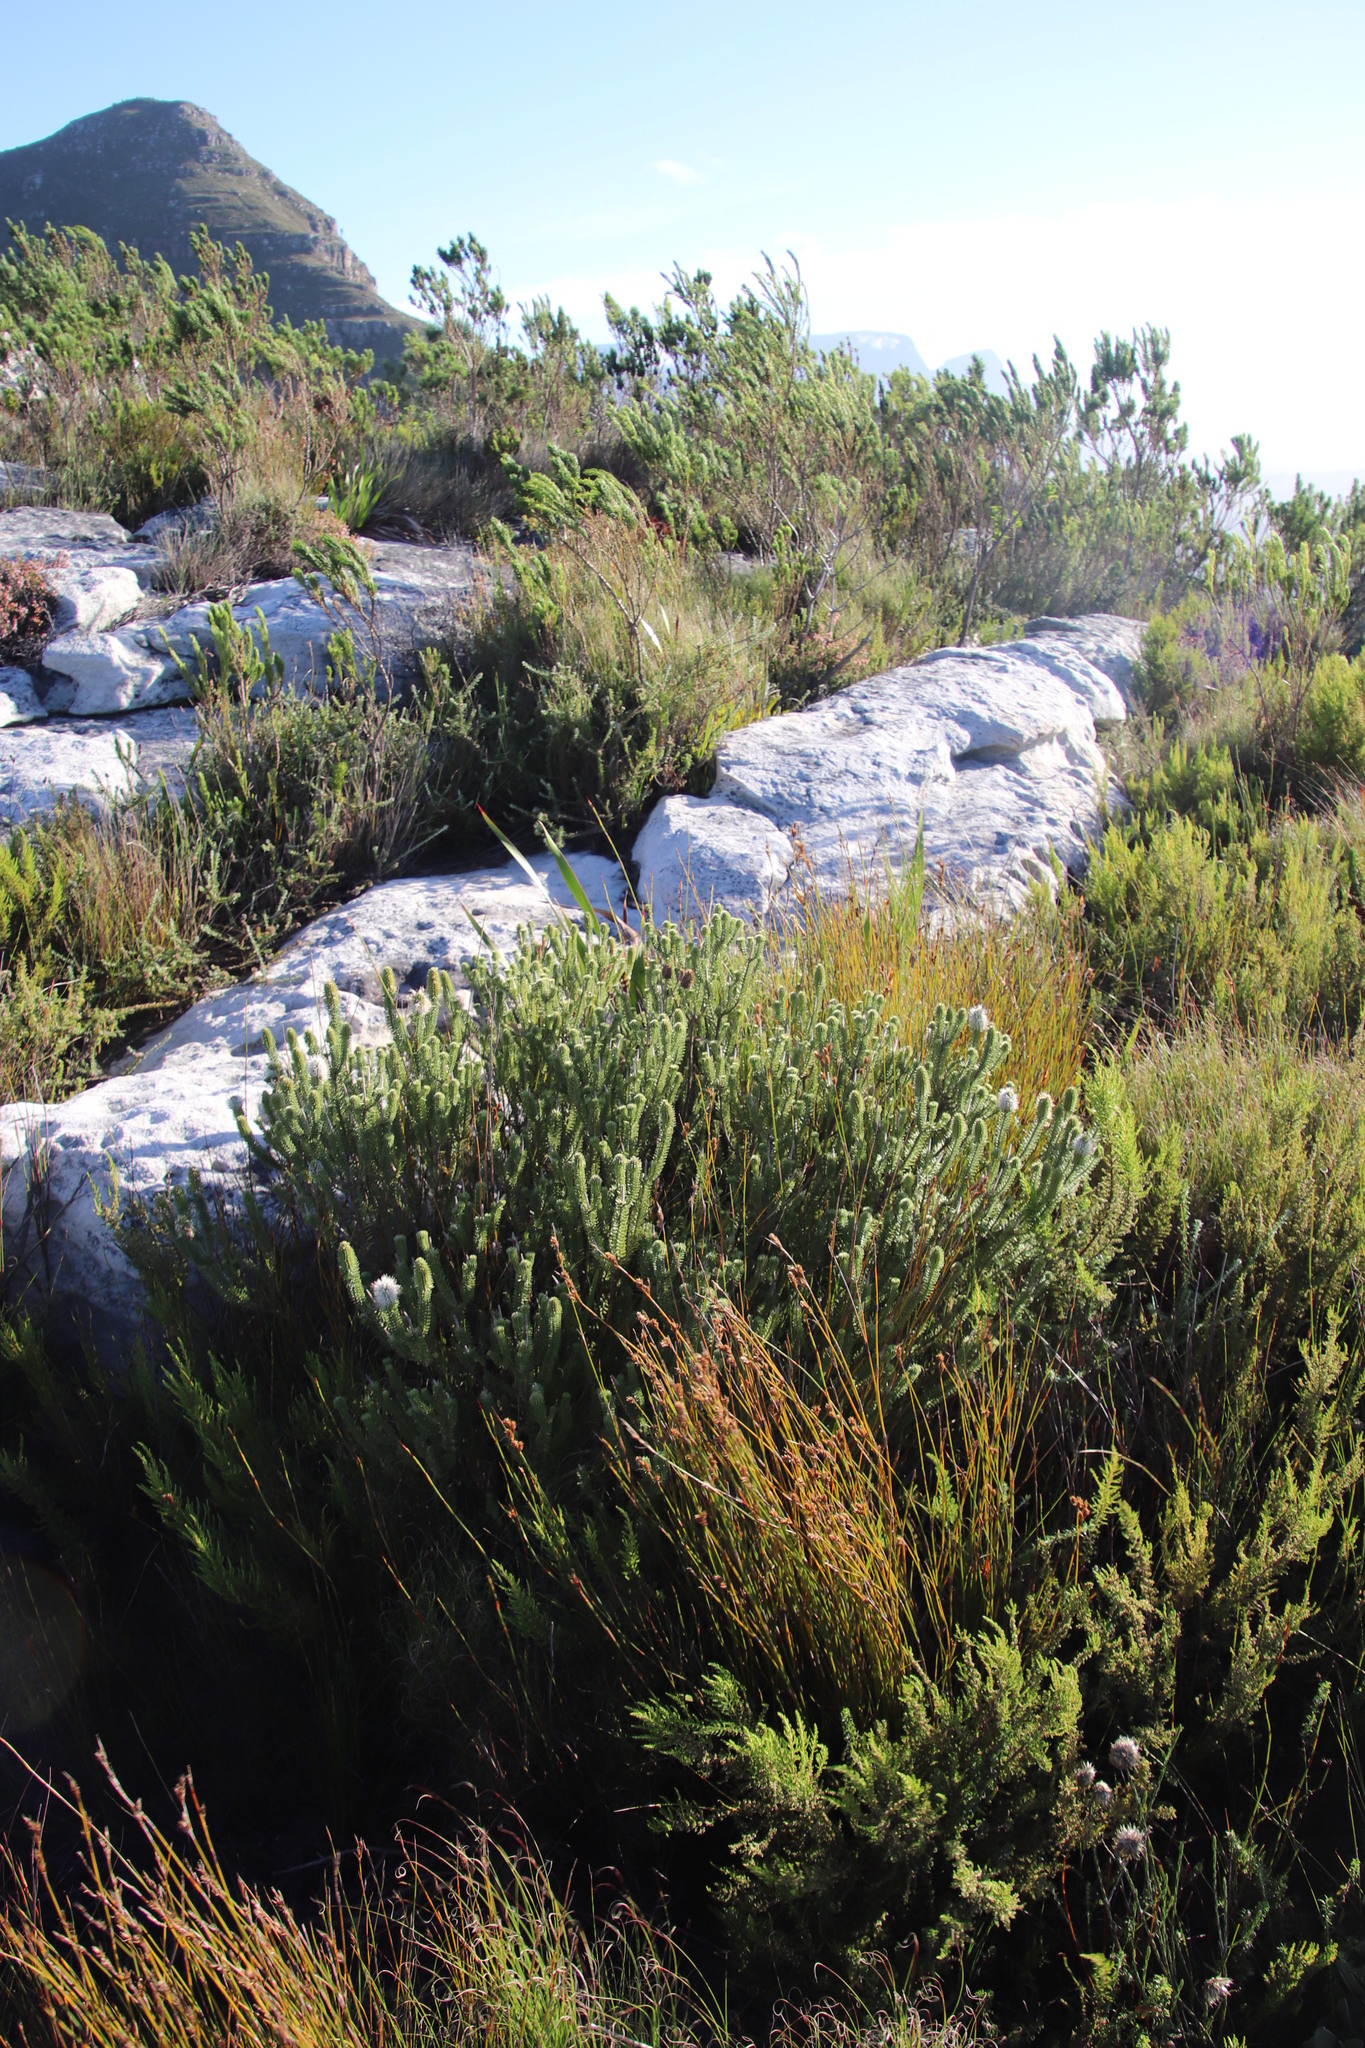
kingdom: Plantae
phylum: Tracheophyta
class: Magnoliopsida
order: Lamiales
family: Stilbaceae
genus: Stilbe
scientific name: Stilbe vestita
